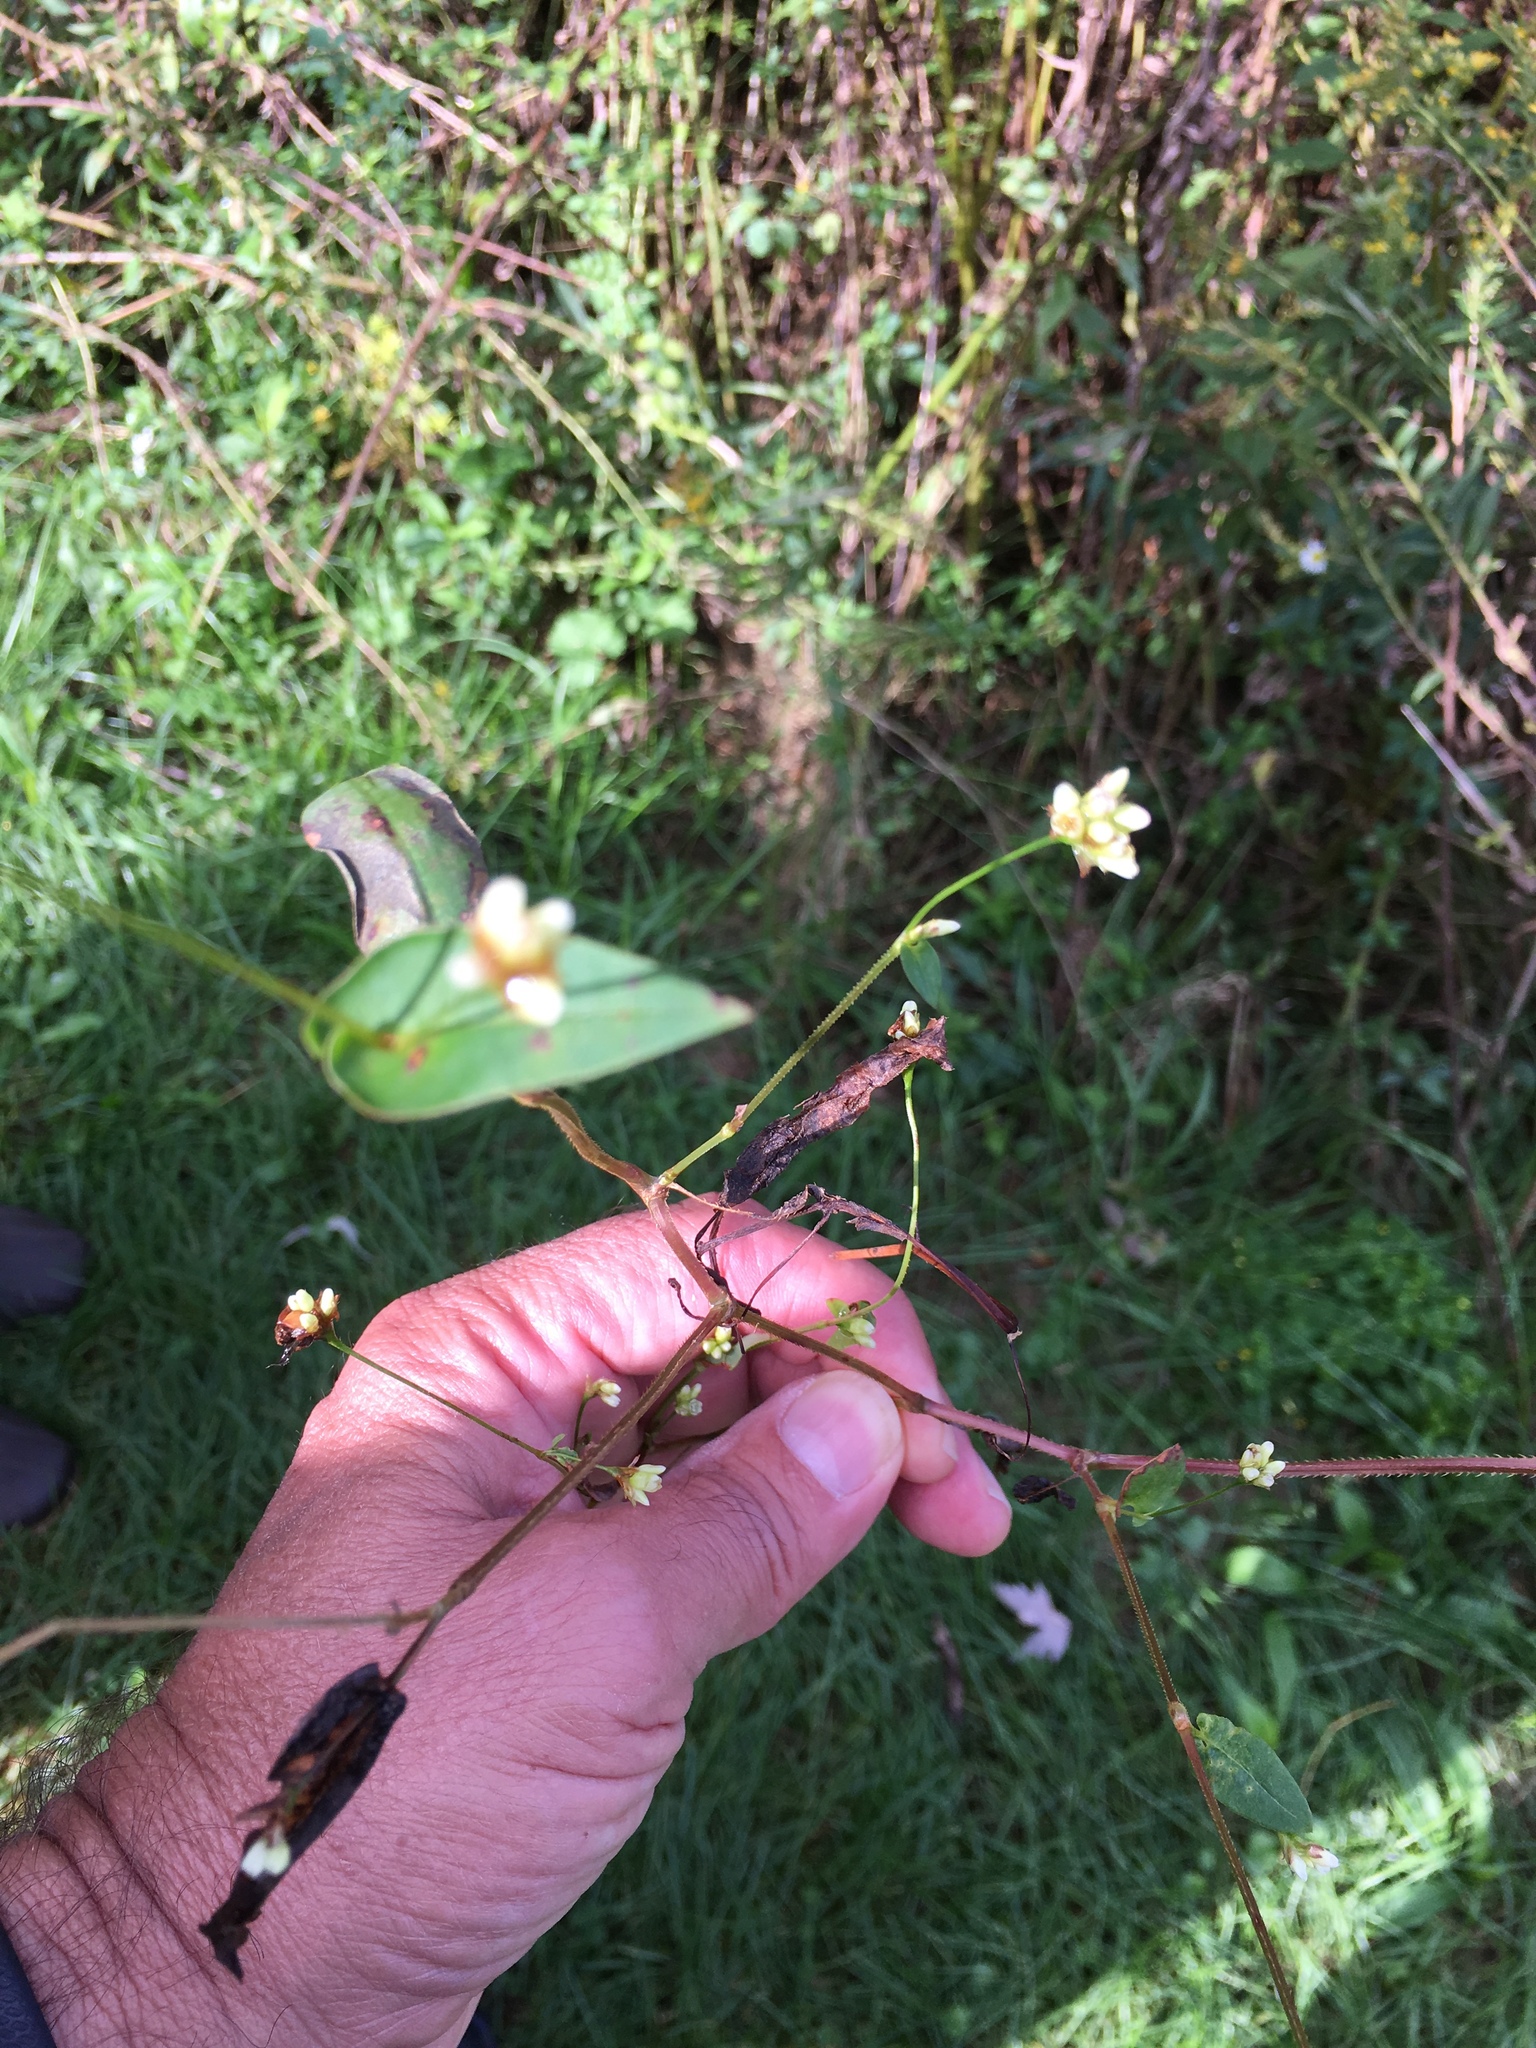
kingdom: Plantae
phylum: Tracheophyta
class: Magnoliopsida
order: Caryophyllales
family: Polygonaceae
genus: Persicaria
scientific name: Persicaria sagittata
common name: American tearthumb
